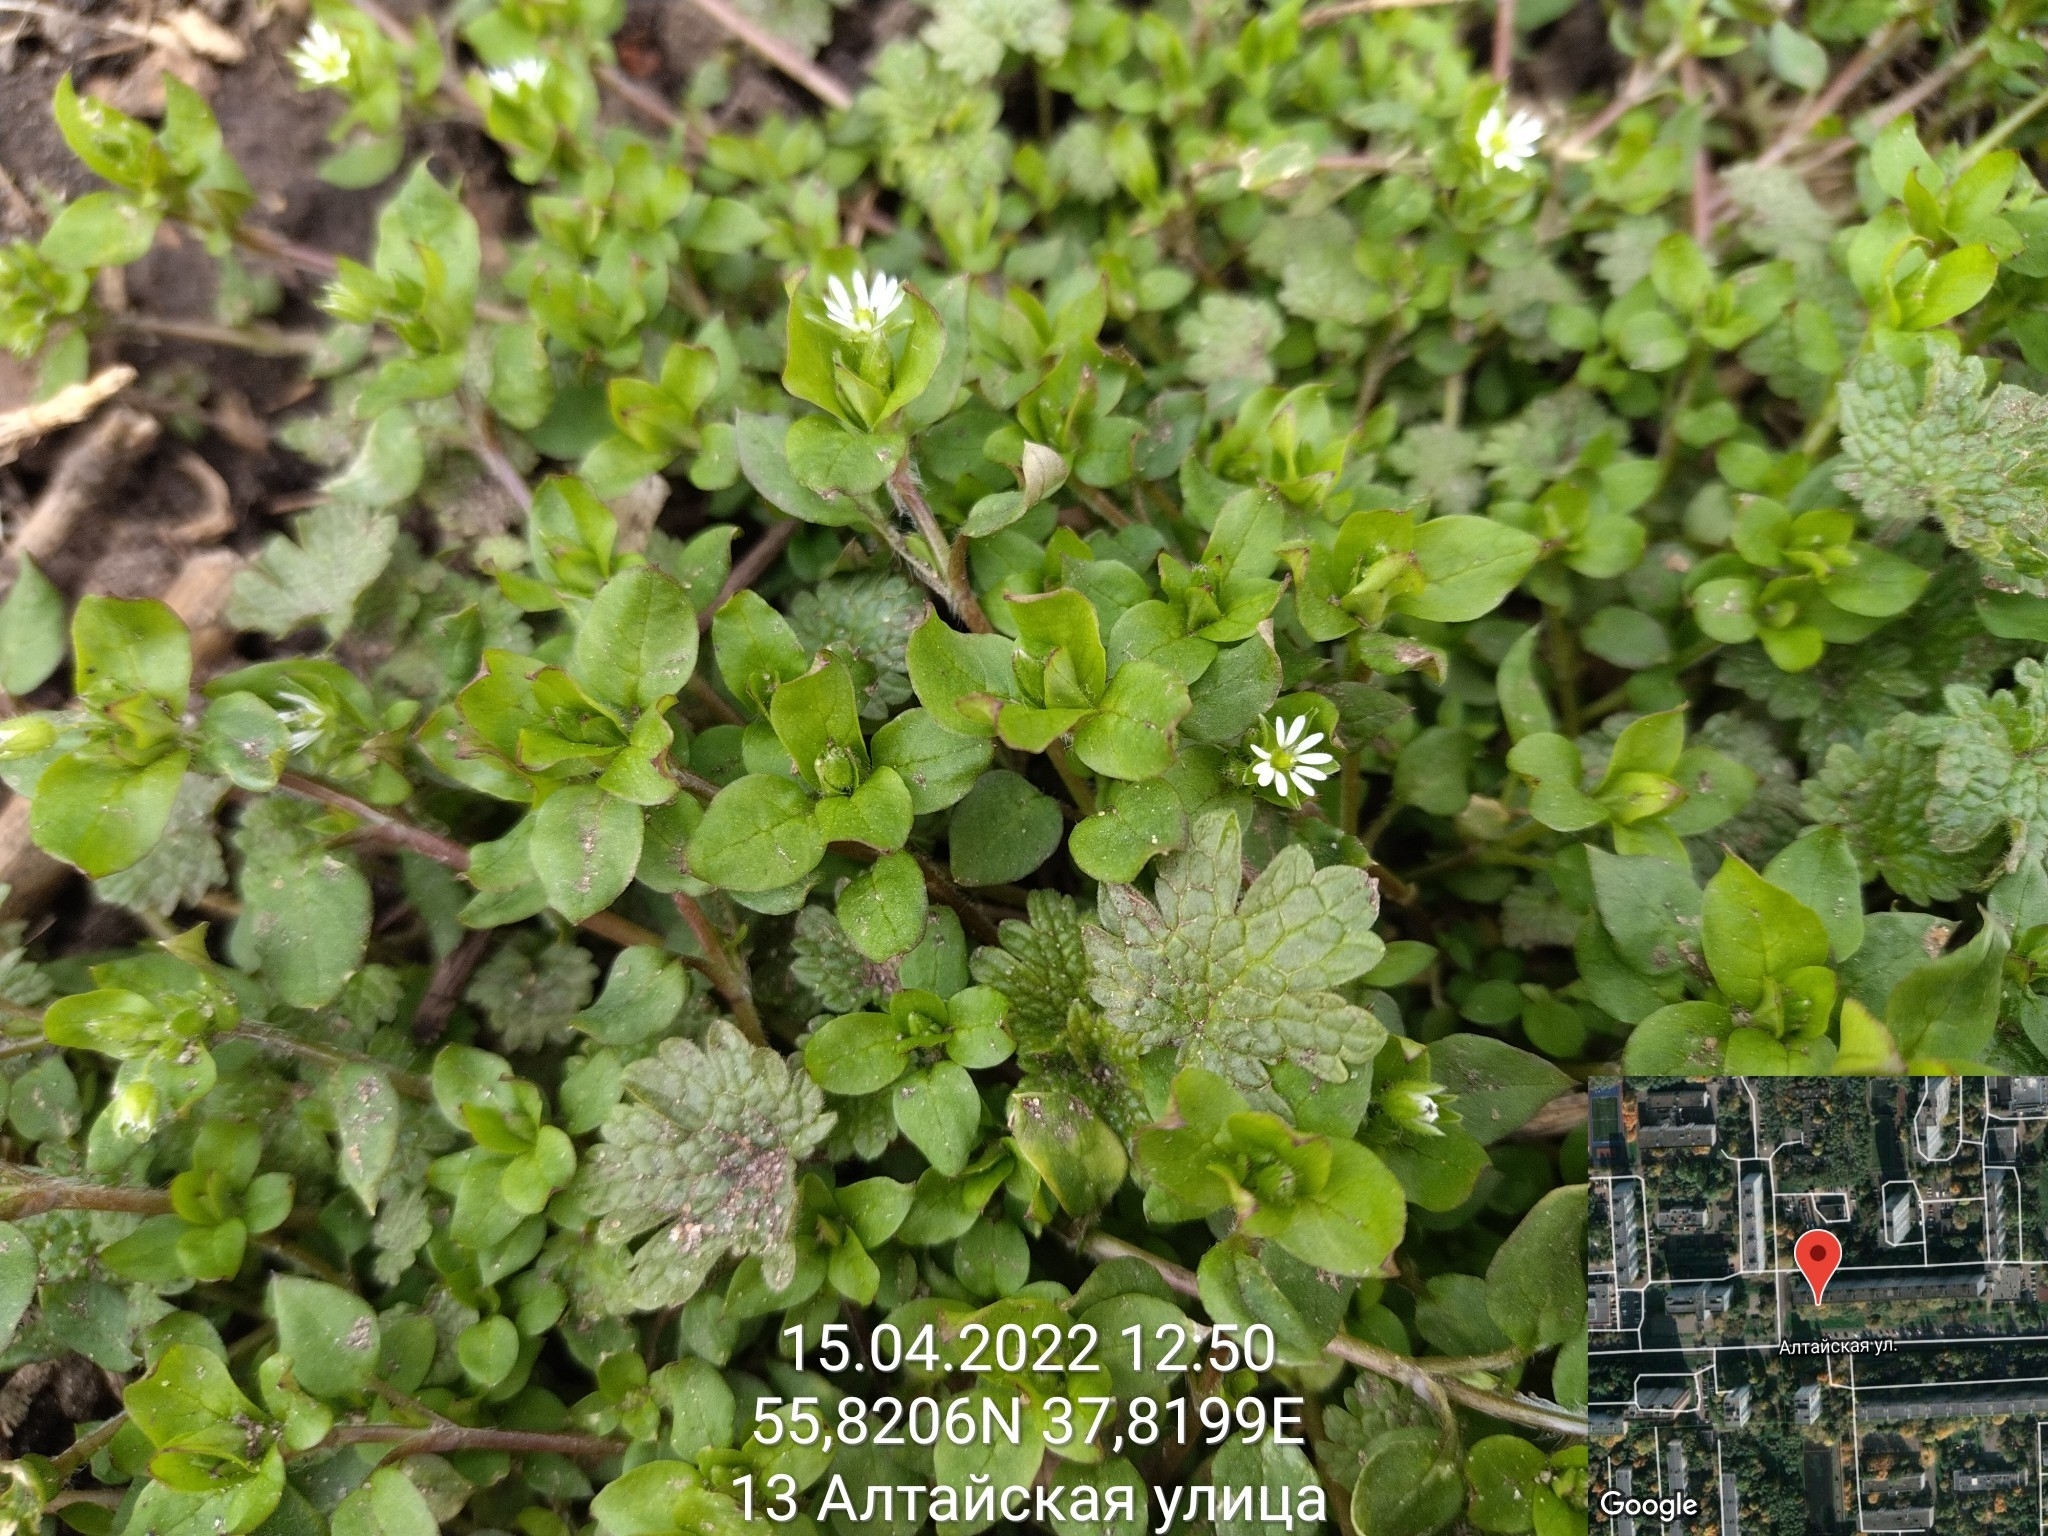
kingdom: Plantae
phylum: Tracheophyta
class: Magnoliopsida
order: Caryophyllales
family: Caryophyllaceae
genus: Stellaria
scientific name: Stellaria media
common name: Common chickweed
